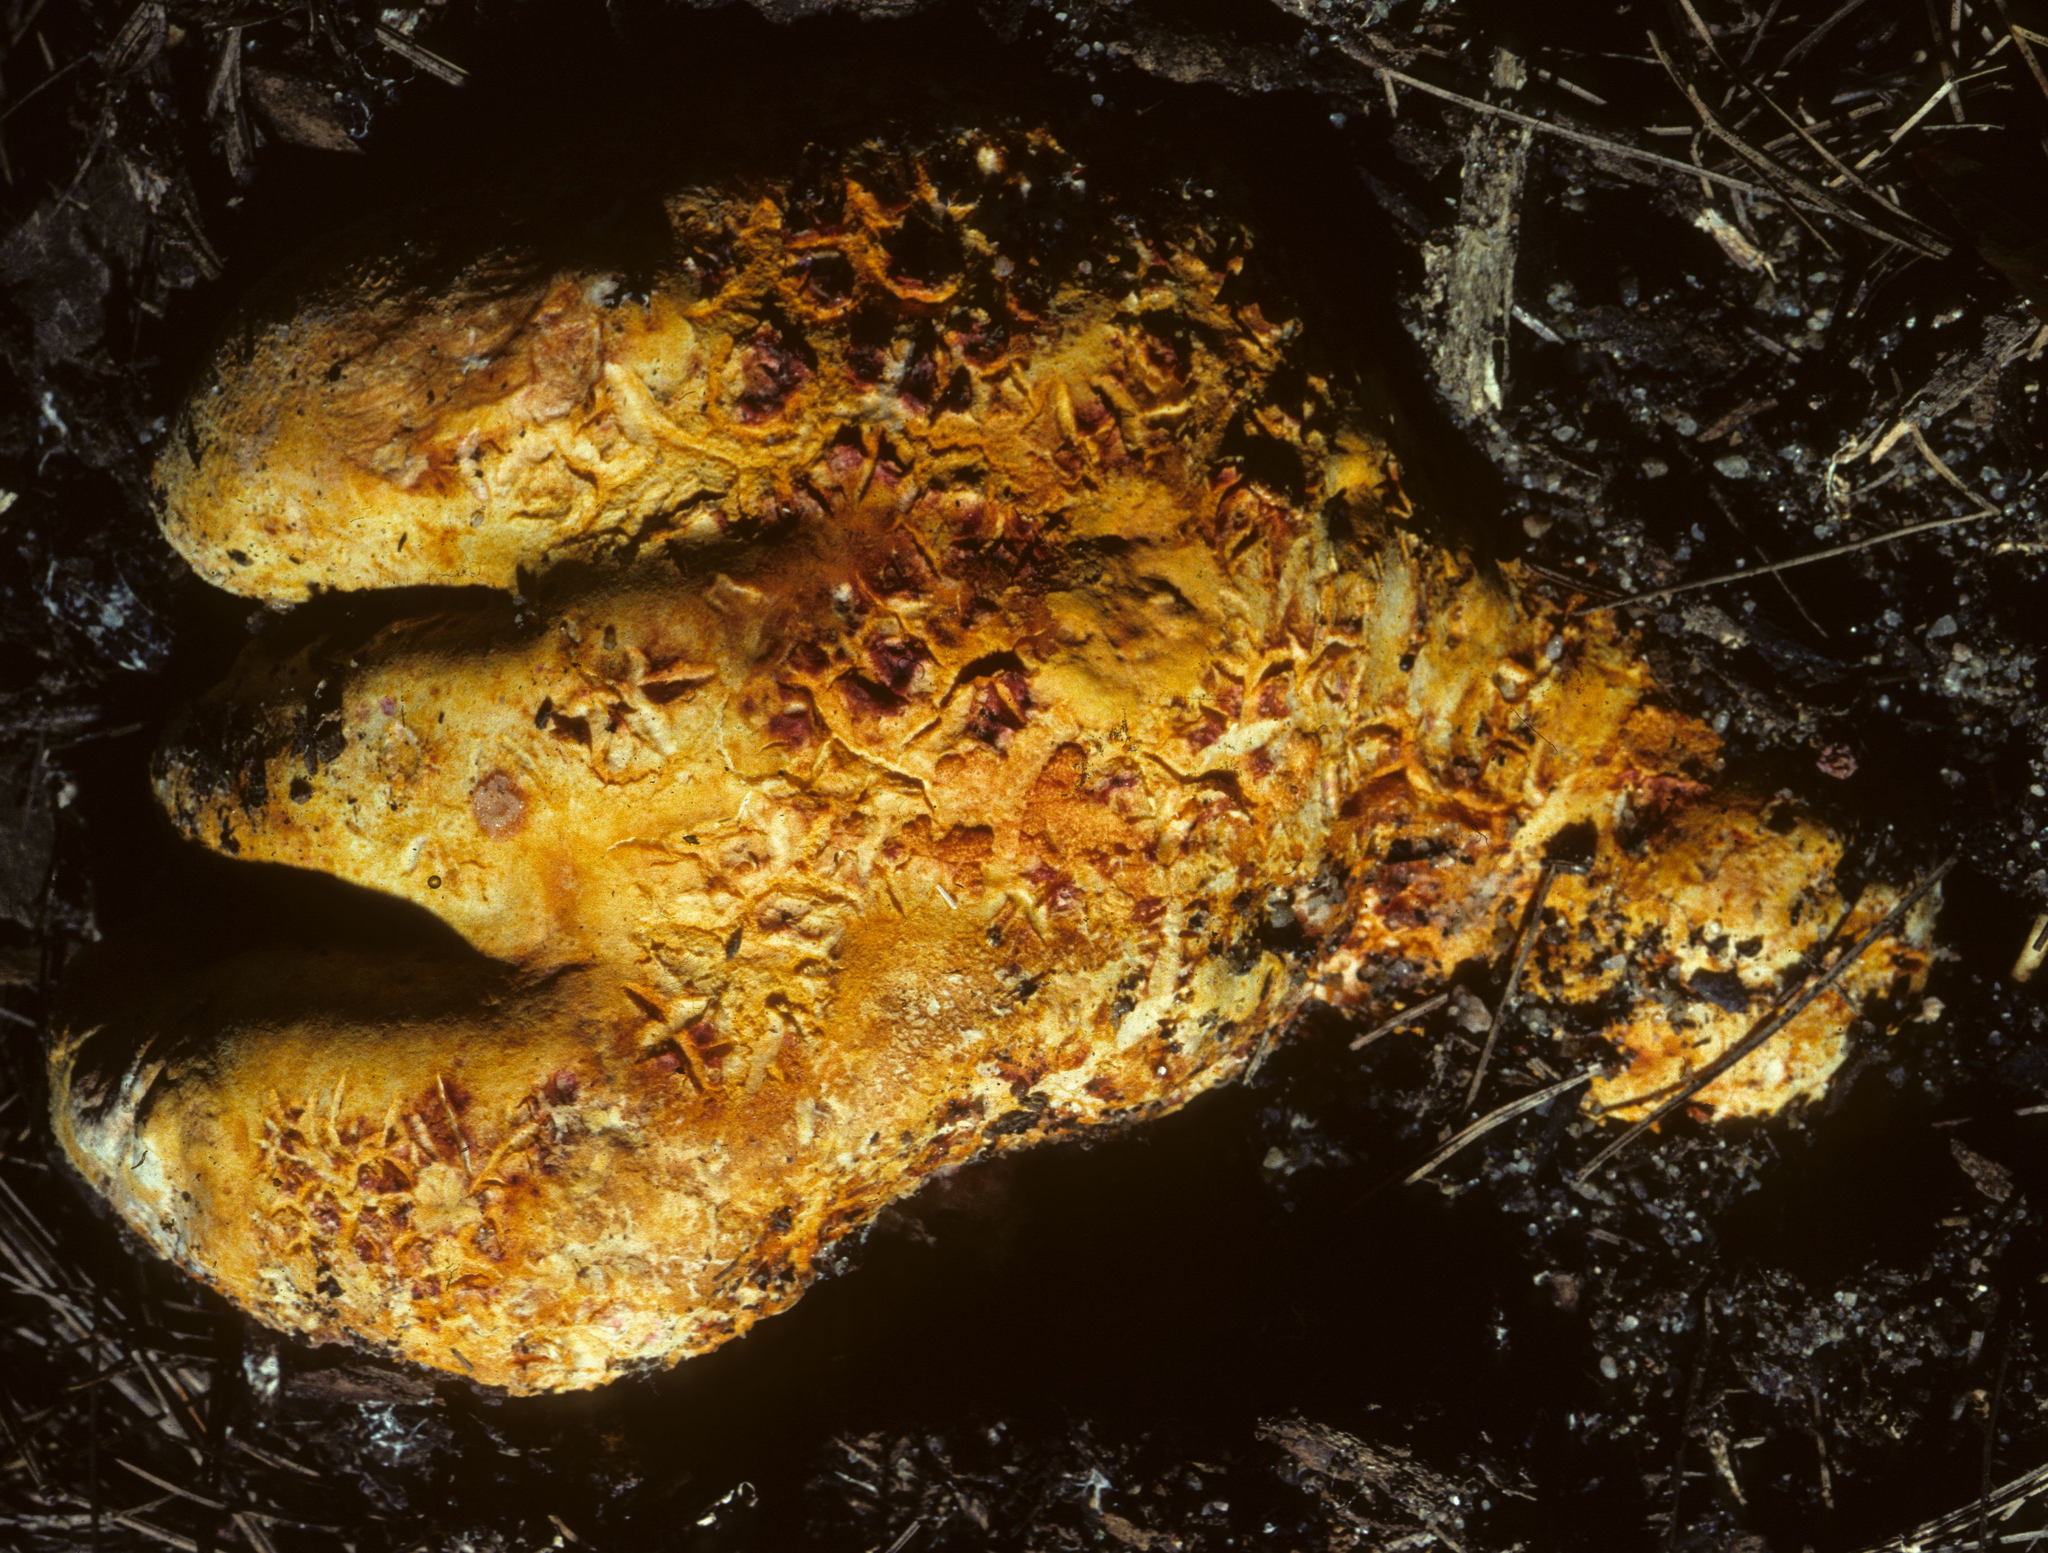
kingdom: Fungi
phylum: Ascomycota
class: Sordariomycetes
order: Hypocreales
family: Hypocreaceae
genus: Hypomyces
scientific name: Hypomyces lactifluorum
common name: Lobster mushroom
